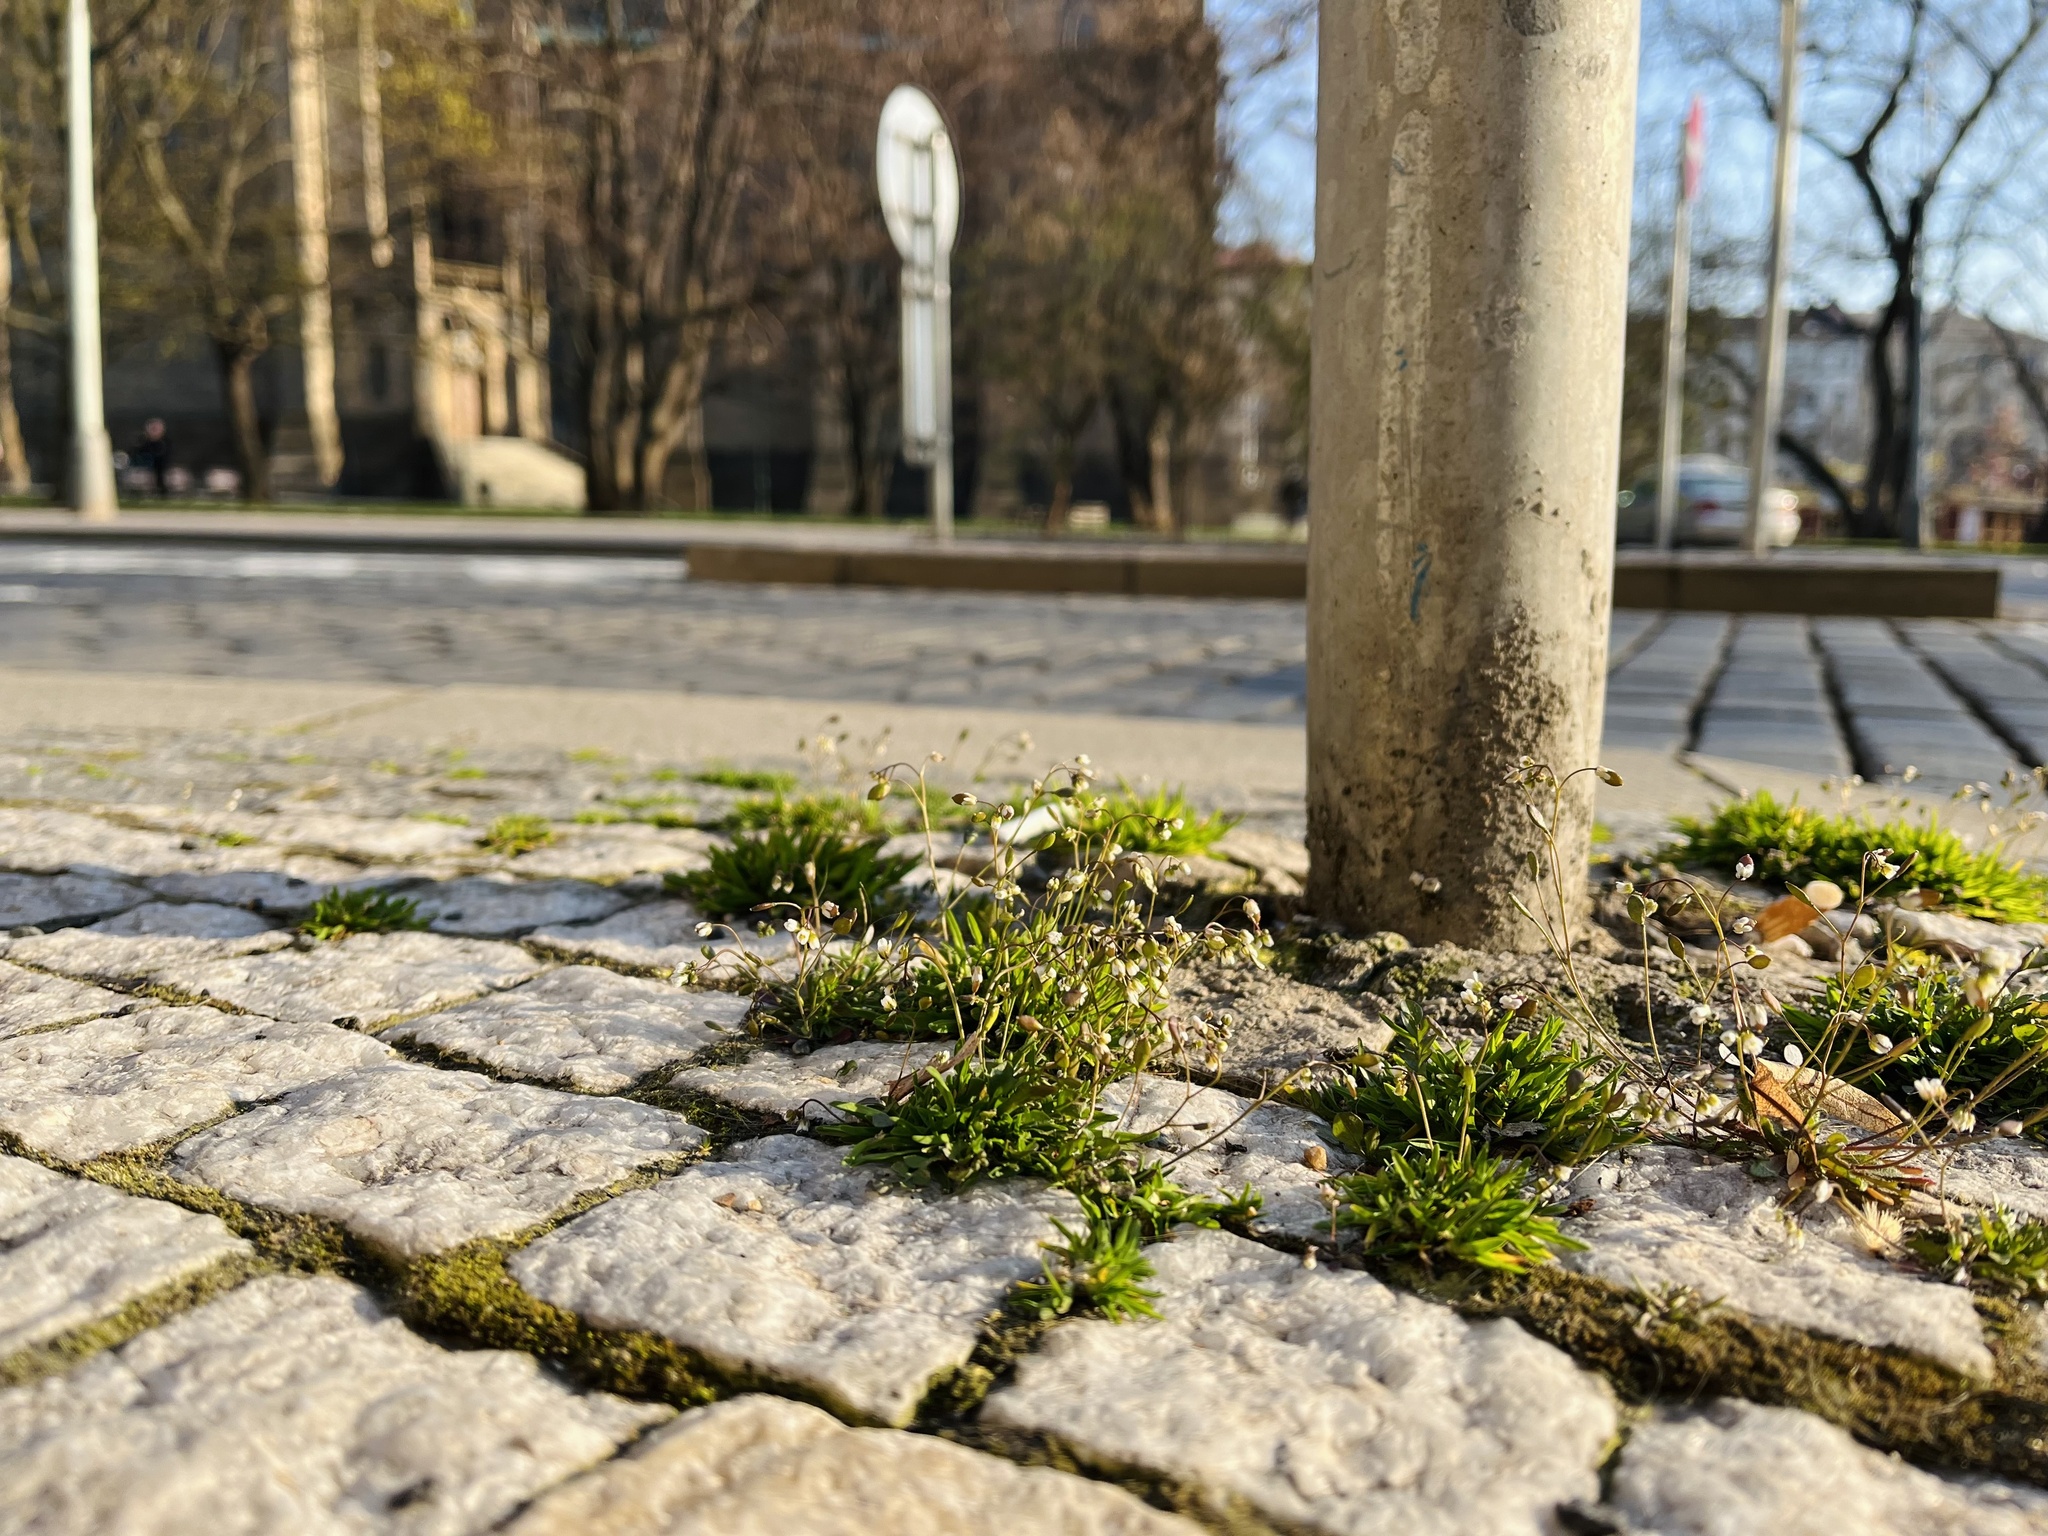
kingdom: Plantae
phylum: Tracheophyta
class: Magnoliopsida
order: Brassicales
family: Brassicaceae
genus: Draba
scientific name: Draba verna
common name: Spring draba
